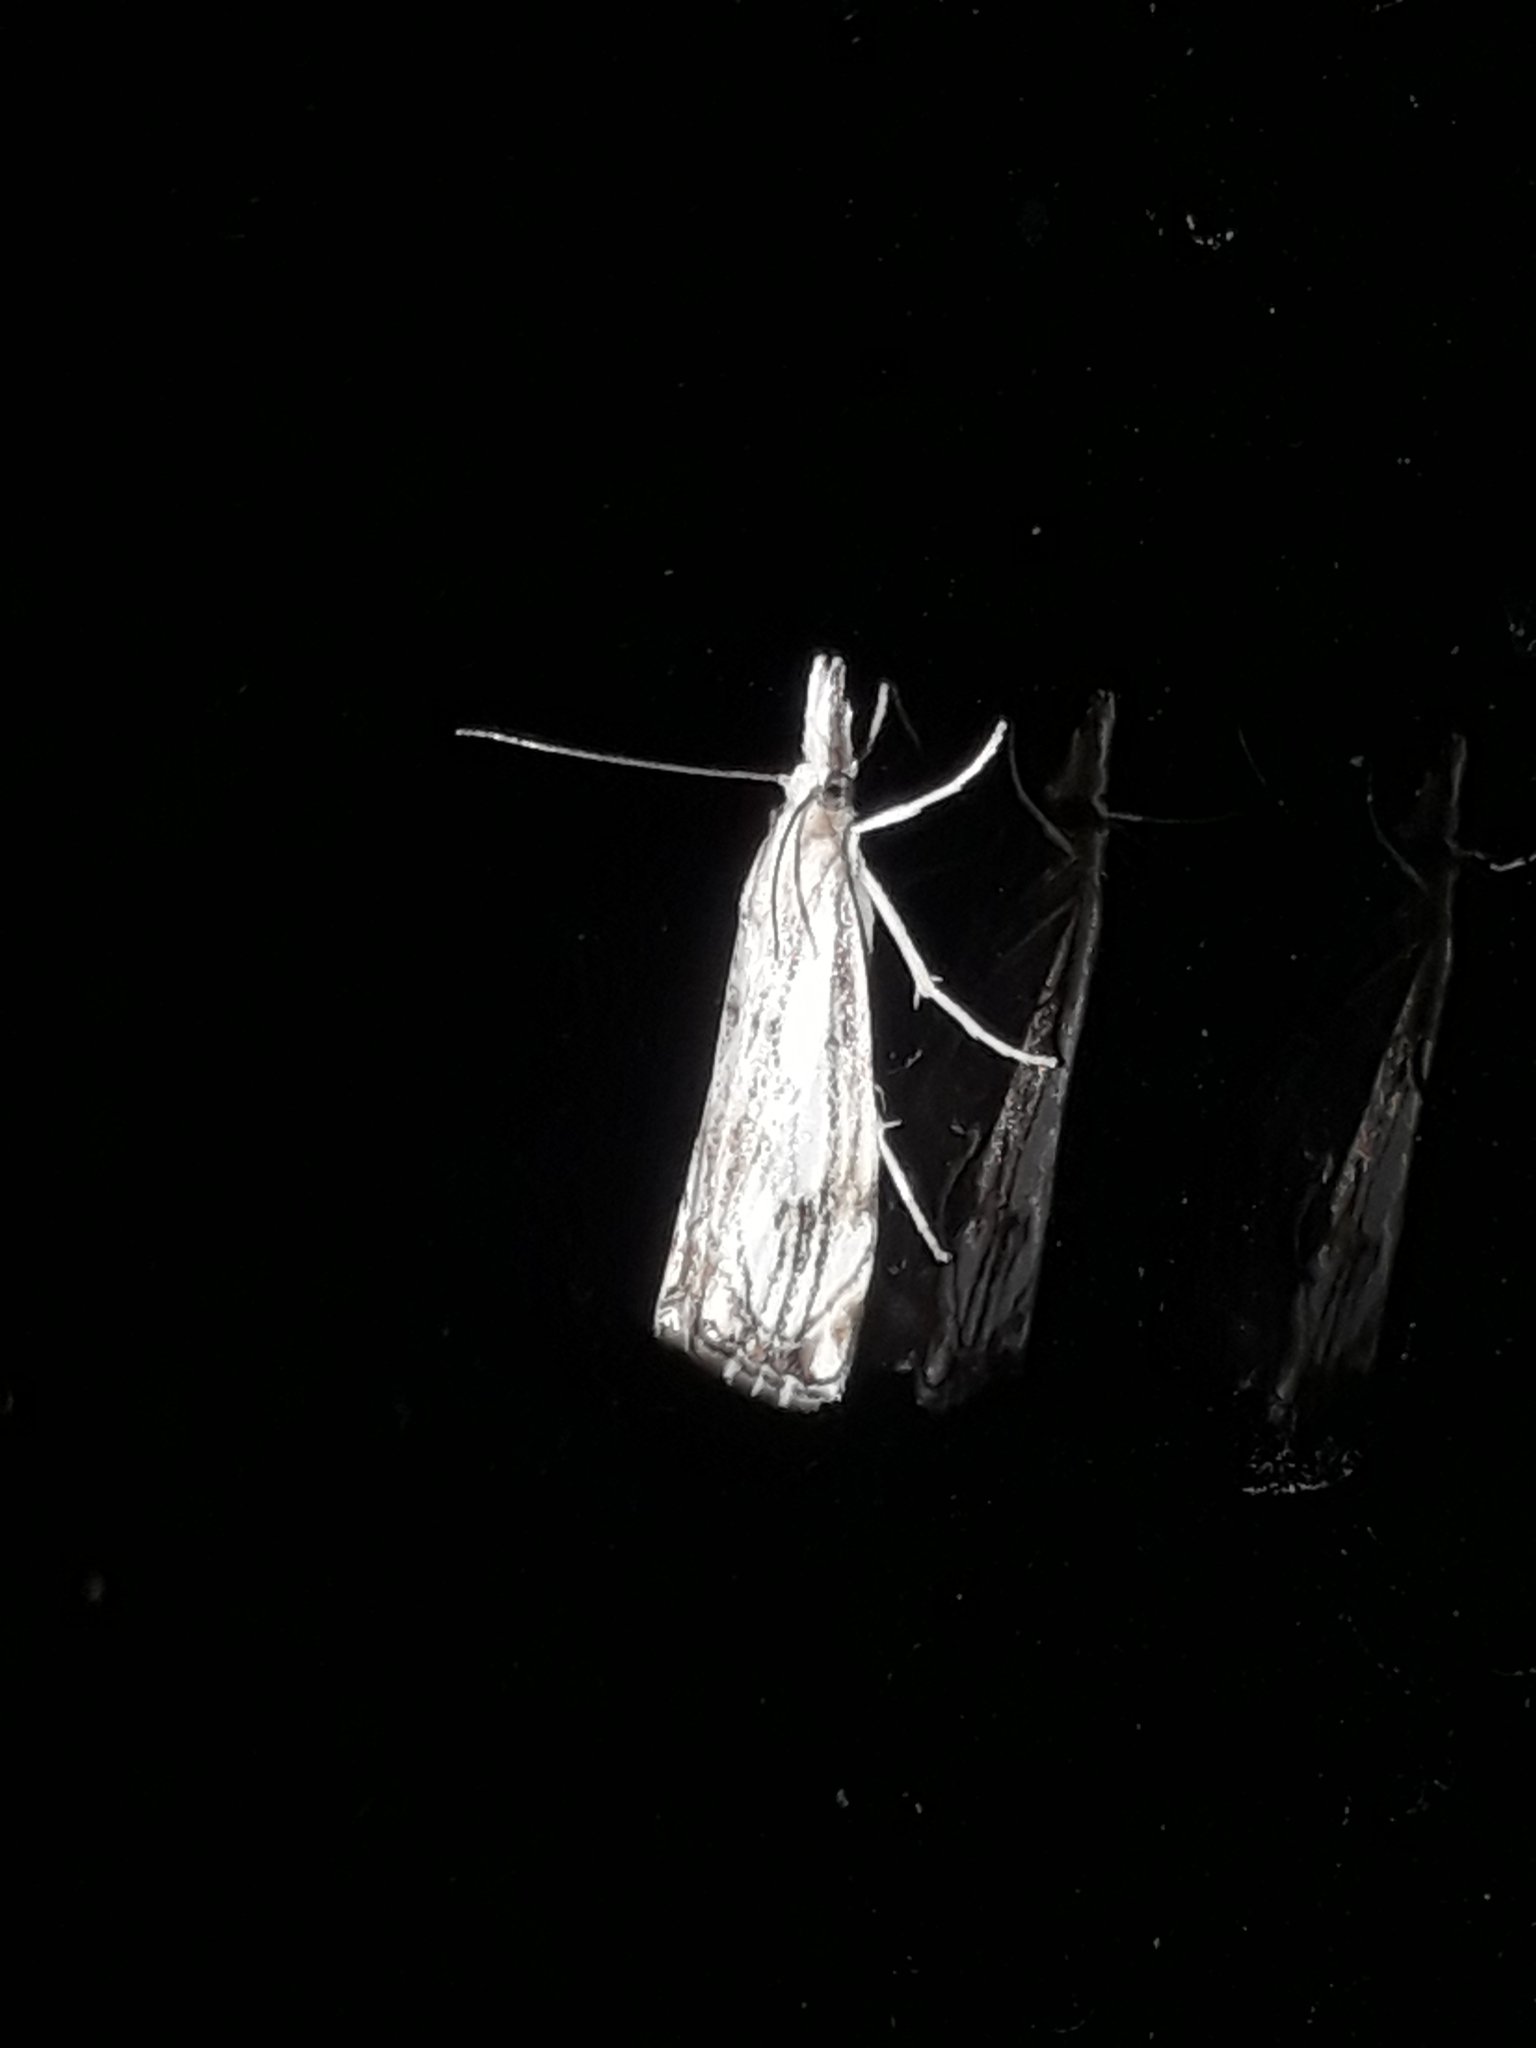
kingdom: Animalia
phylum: Arthropoda
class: Insecta
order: Lepidoptera
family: Crambidae
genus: Catoptria
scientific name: Catoptria falsella
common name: Chequered grass-veneer
